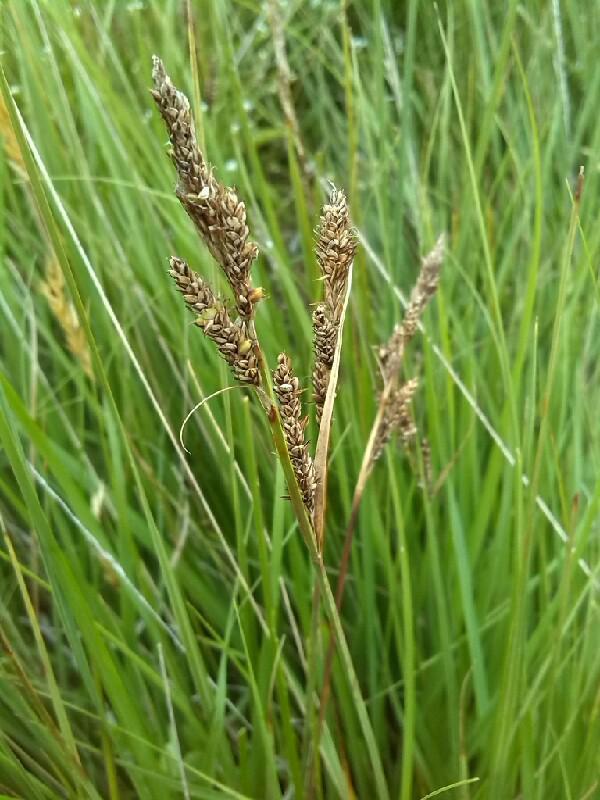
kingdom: Plantae
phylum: Tracheophyta
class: Liliopsida
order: Poales
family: Cyperaceae
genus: Carex
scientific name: Carex hartmaniorum
